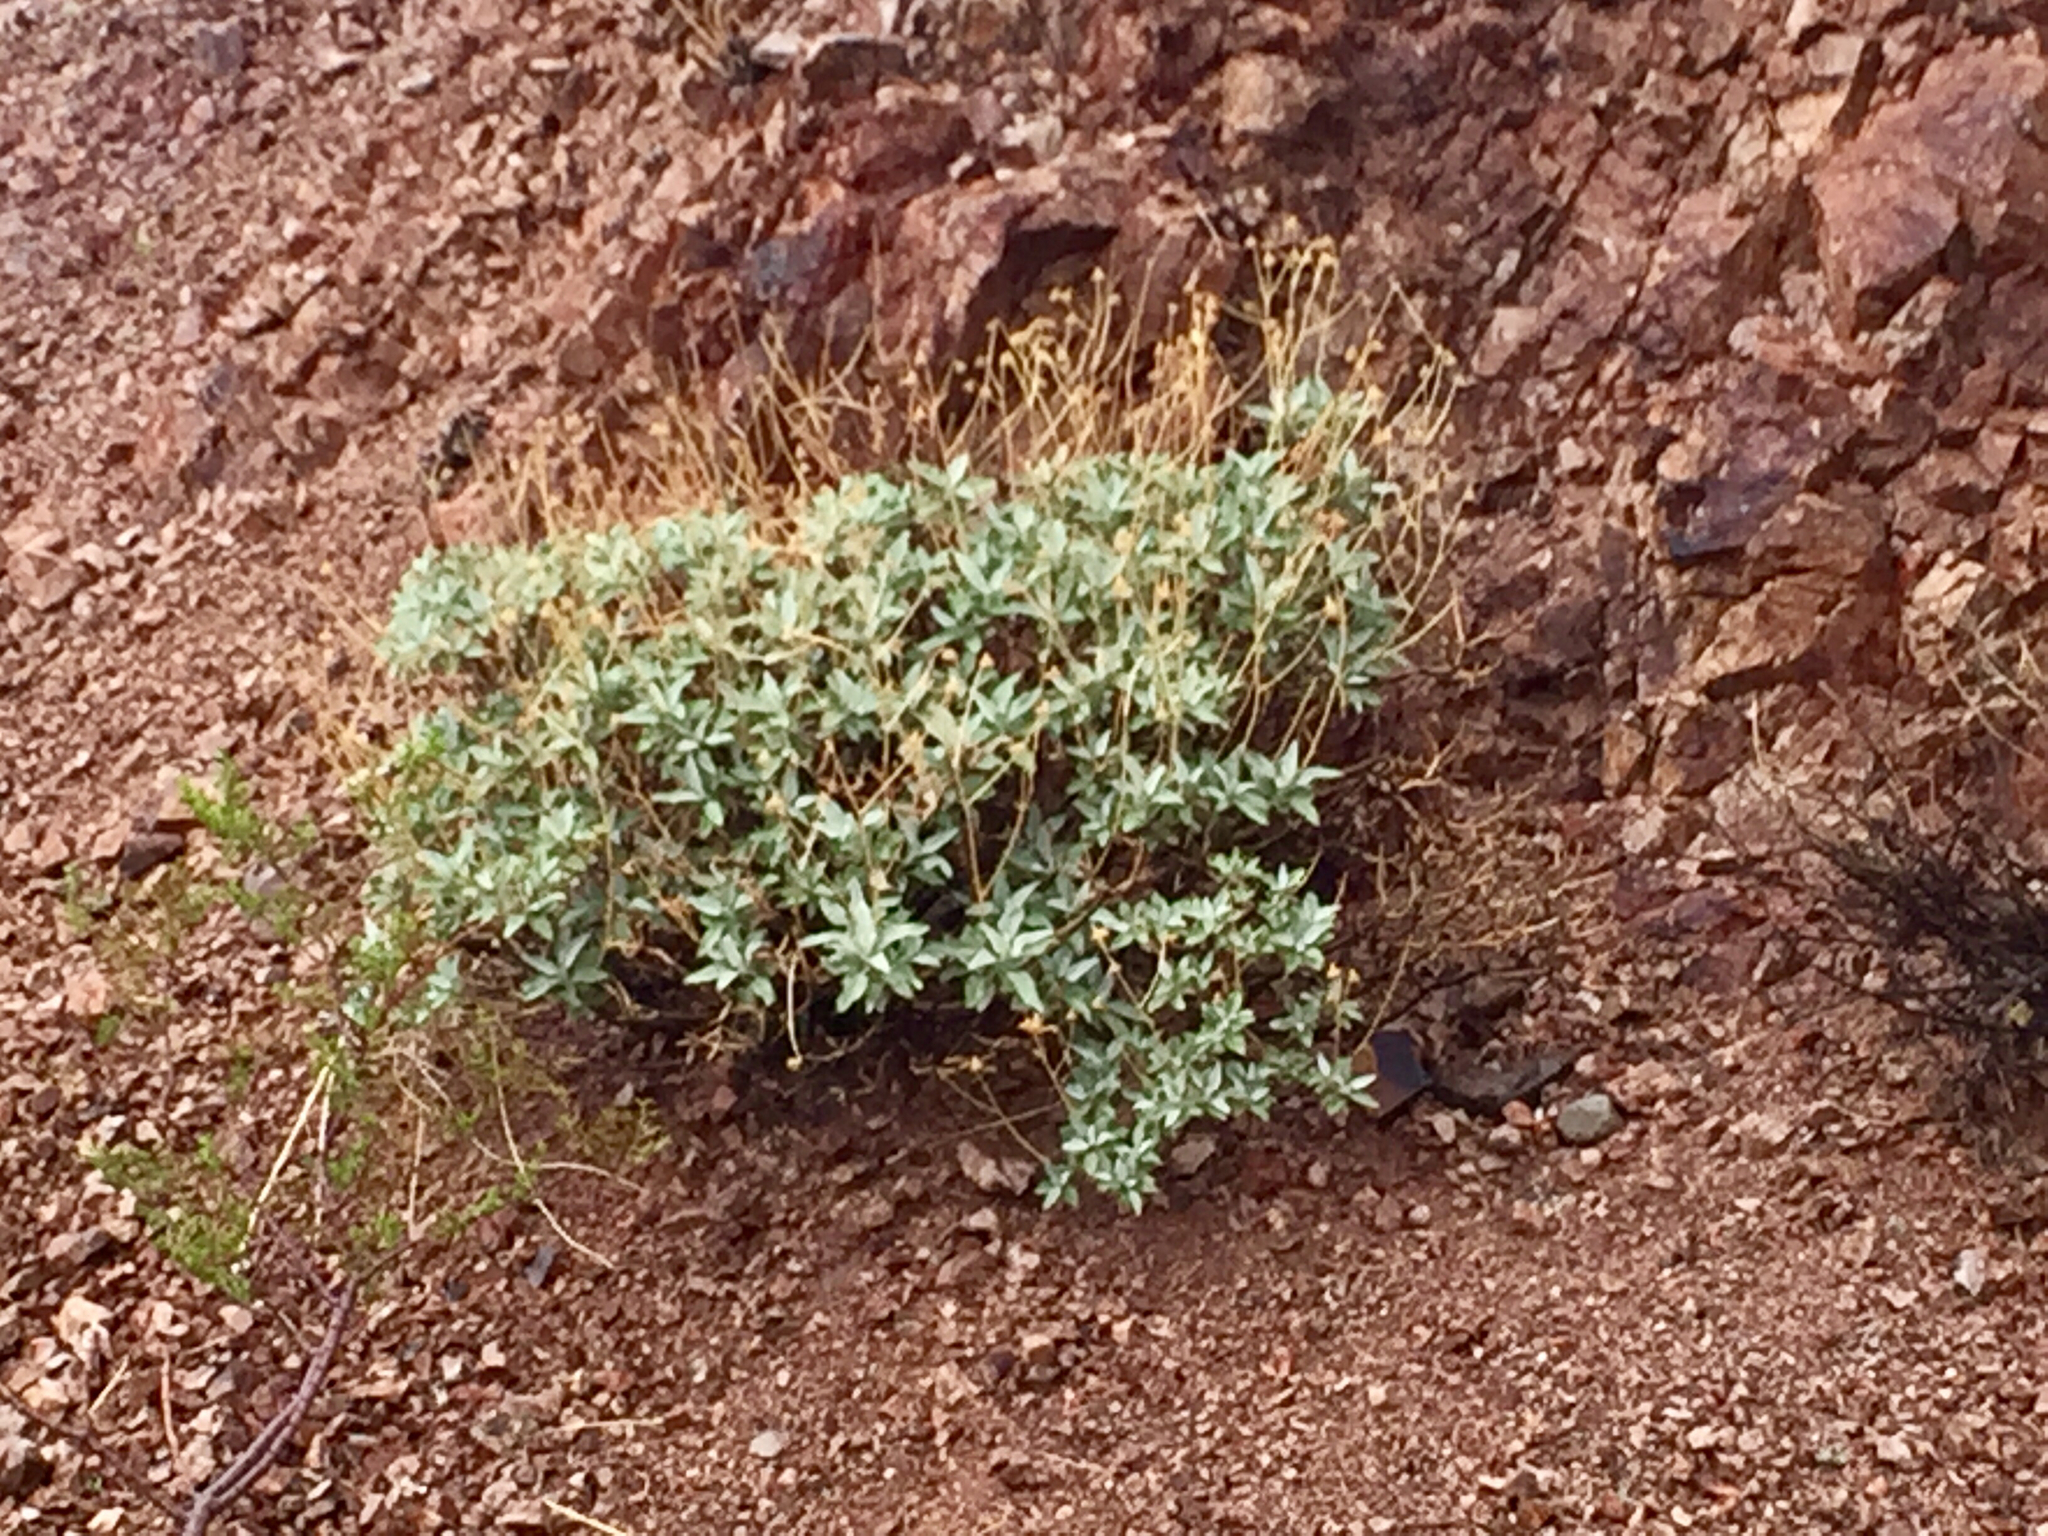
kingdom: Plantae
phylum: Tracheophyta
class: Magnoliopsida
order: Asterales
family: Asteraceae
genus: Encelia
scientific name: Encelia farinosa
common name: Brittlebush
